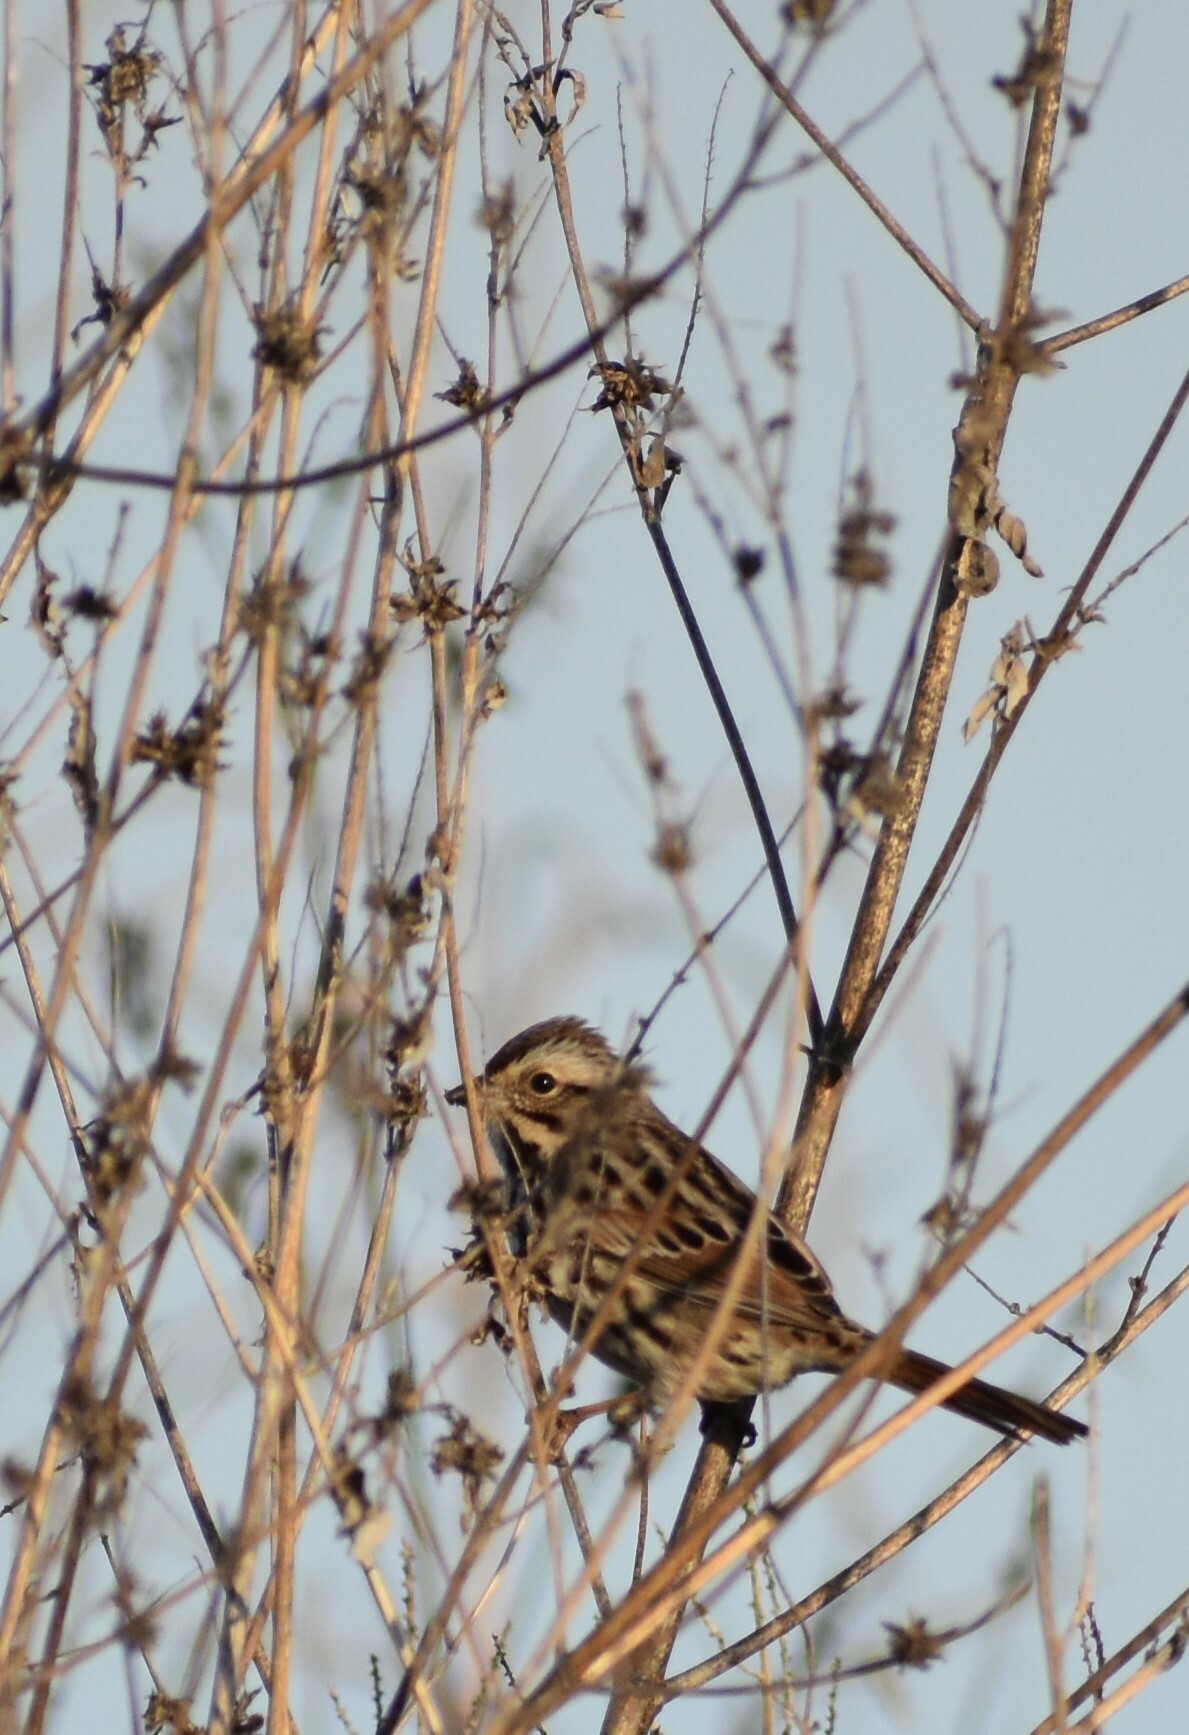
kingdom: Animalia
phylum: Chordata
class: Aves
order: Passeriformes
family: Passerellidae
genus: Passerculus
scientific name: Passerculus sandwichensis
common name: Savannah sparrow
